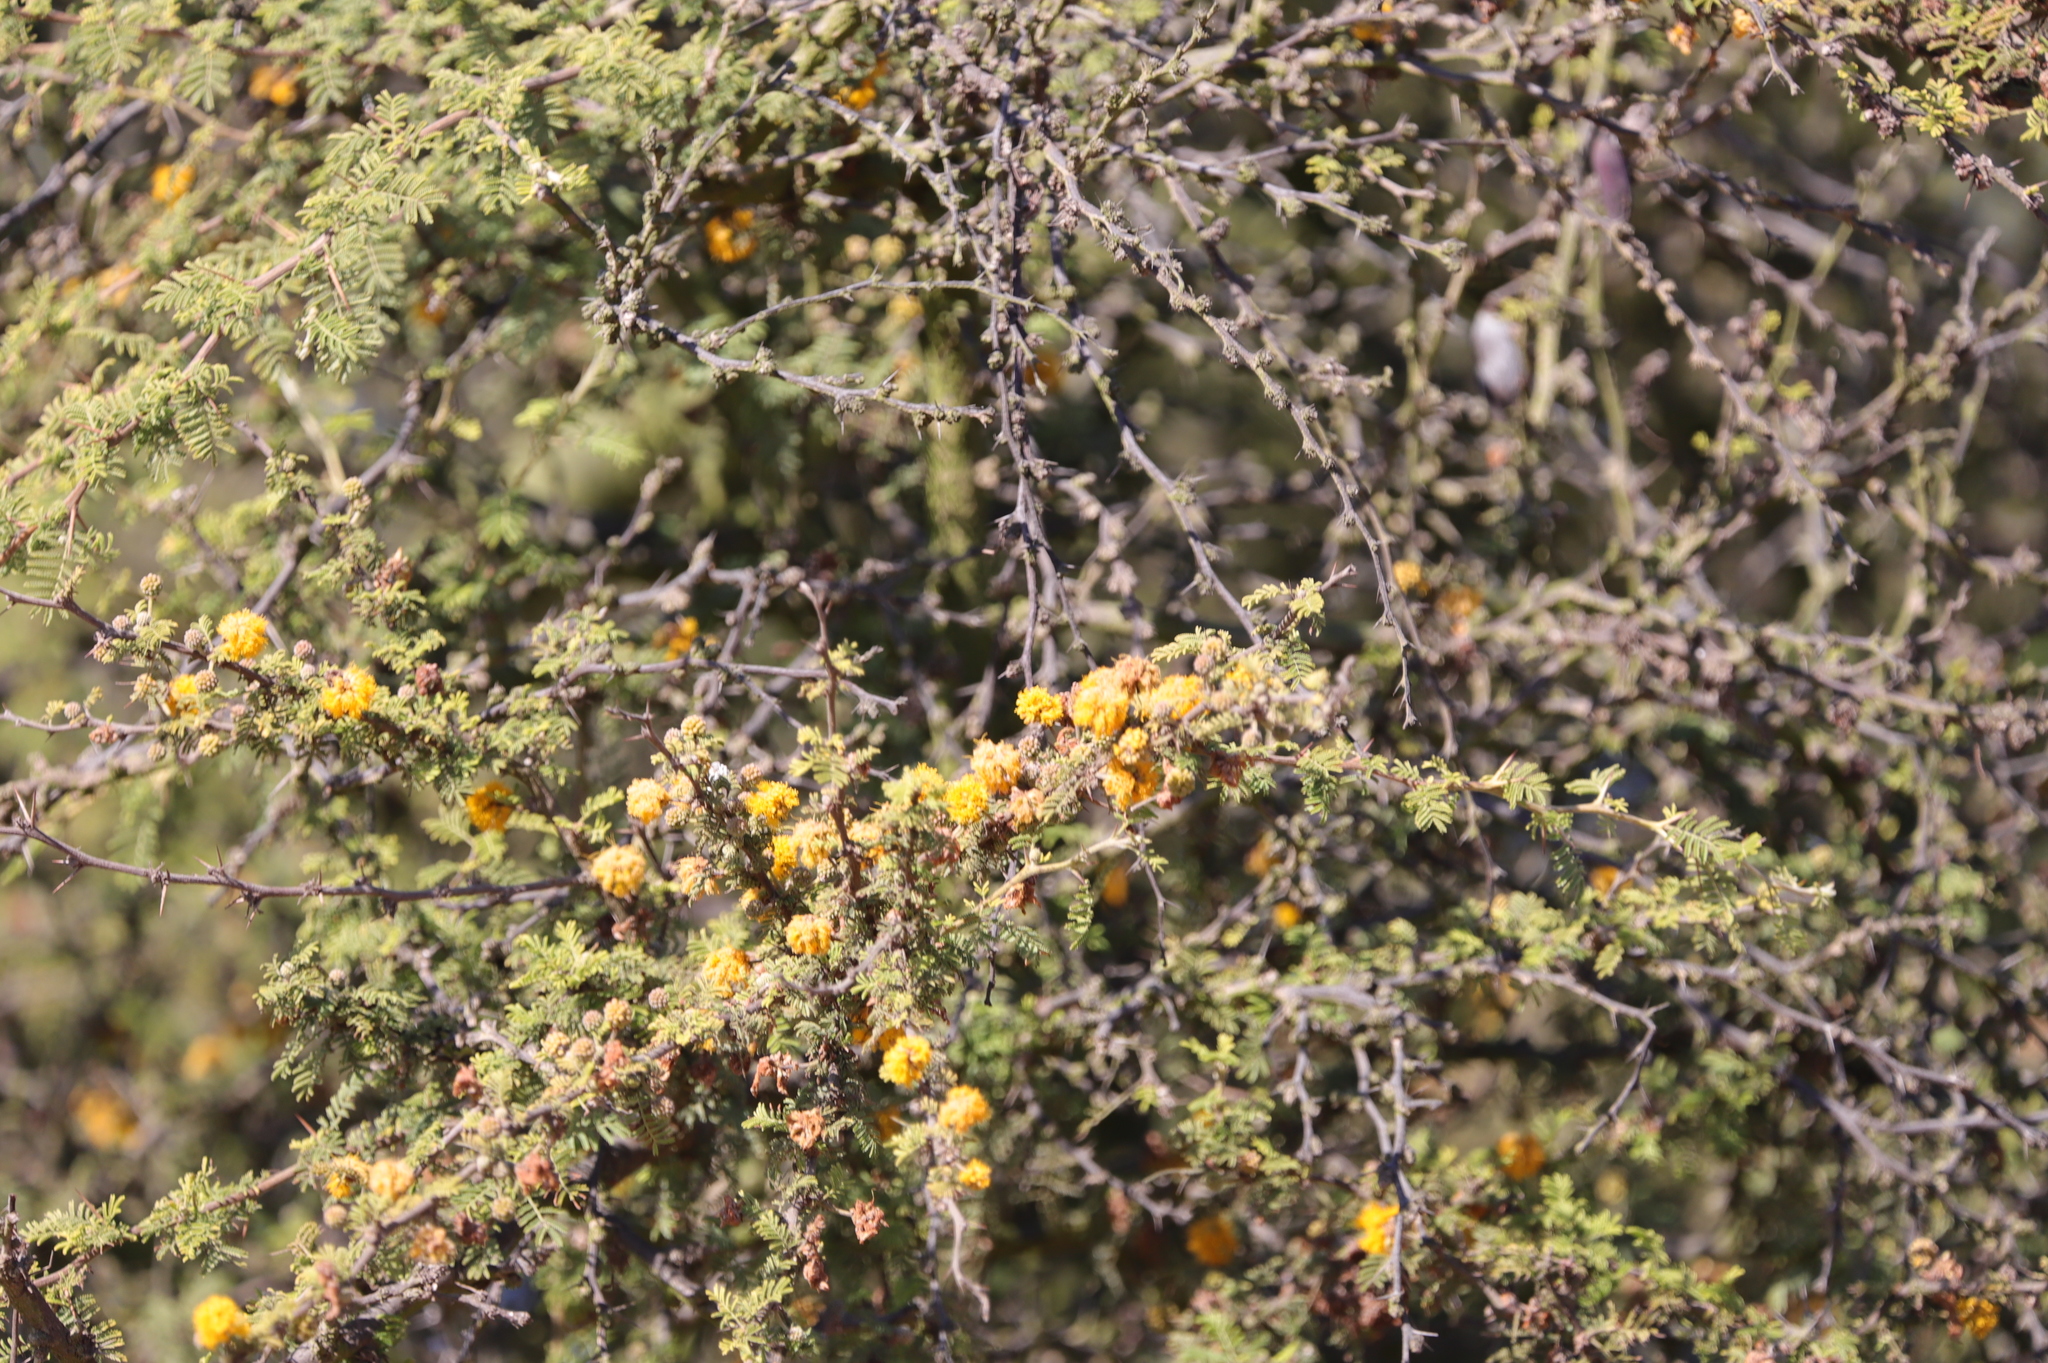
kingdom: Plantae
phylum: Tracheophyta
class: Magnoliopsida
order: Fabales
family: Fabaceae
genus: Vachellia
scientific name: Vachellia caven
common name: Roman cassie
